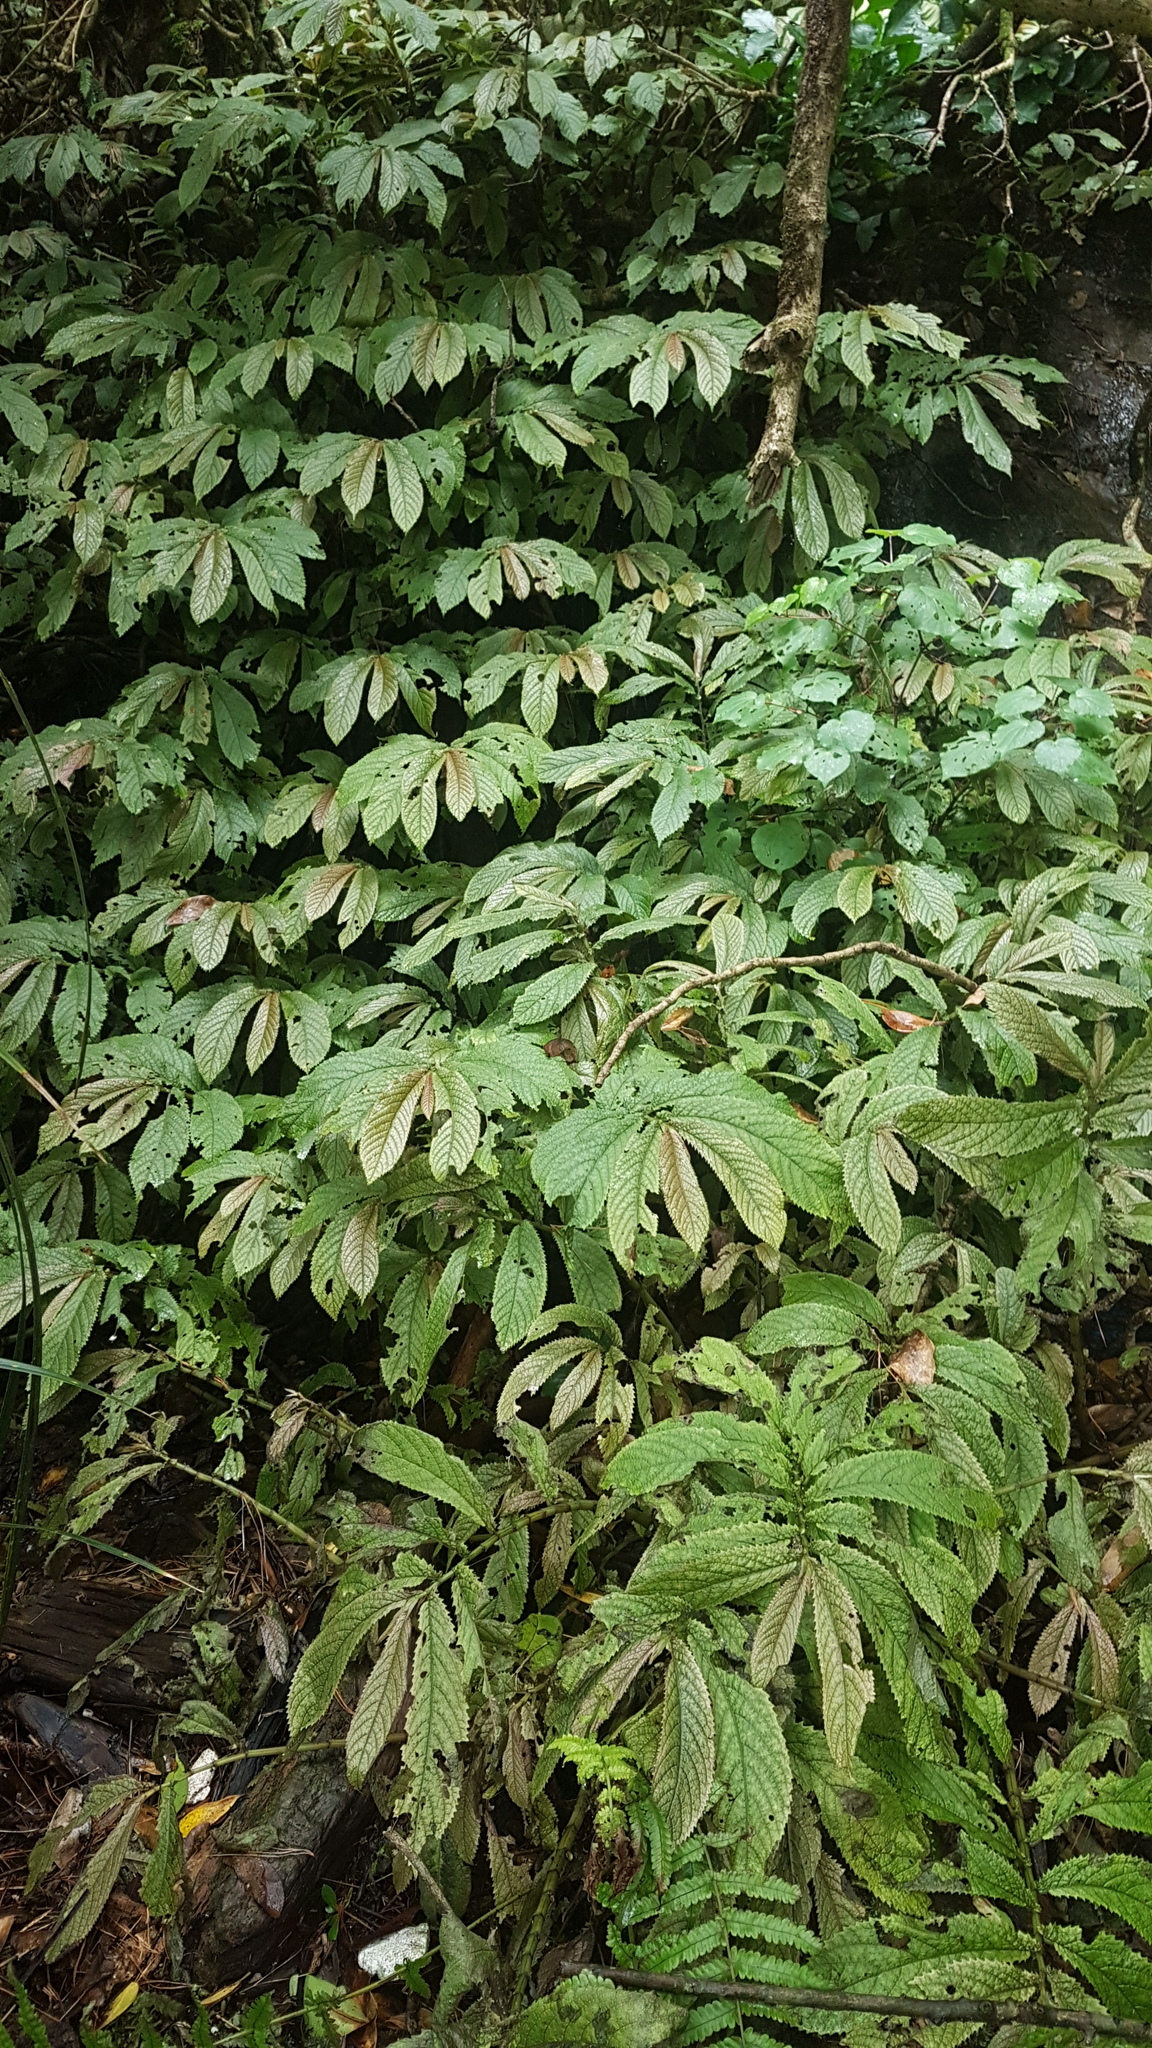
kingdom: Plantae
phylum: Tracheophyta
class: Magnoliopsida
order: Rosales
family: Urticaceae
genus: Elatostema
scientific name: Elatostema rugosum
